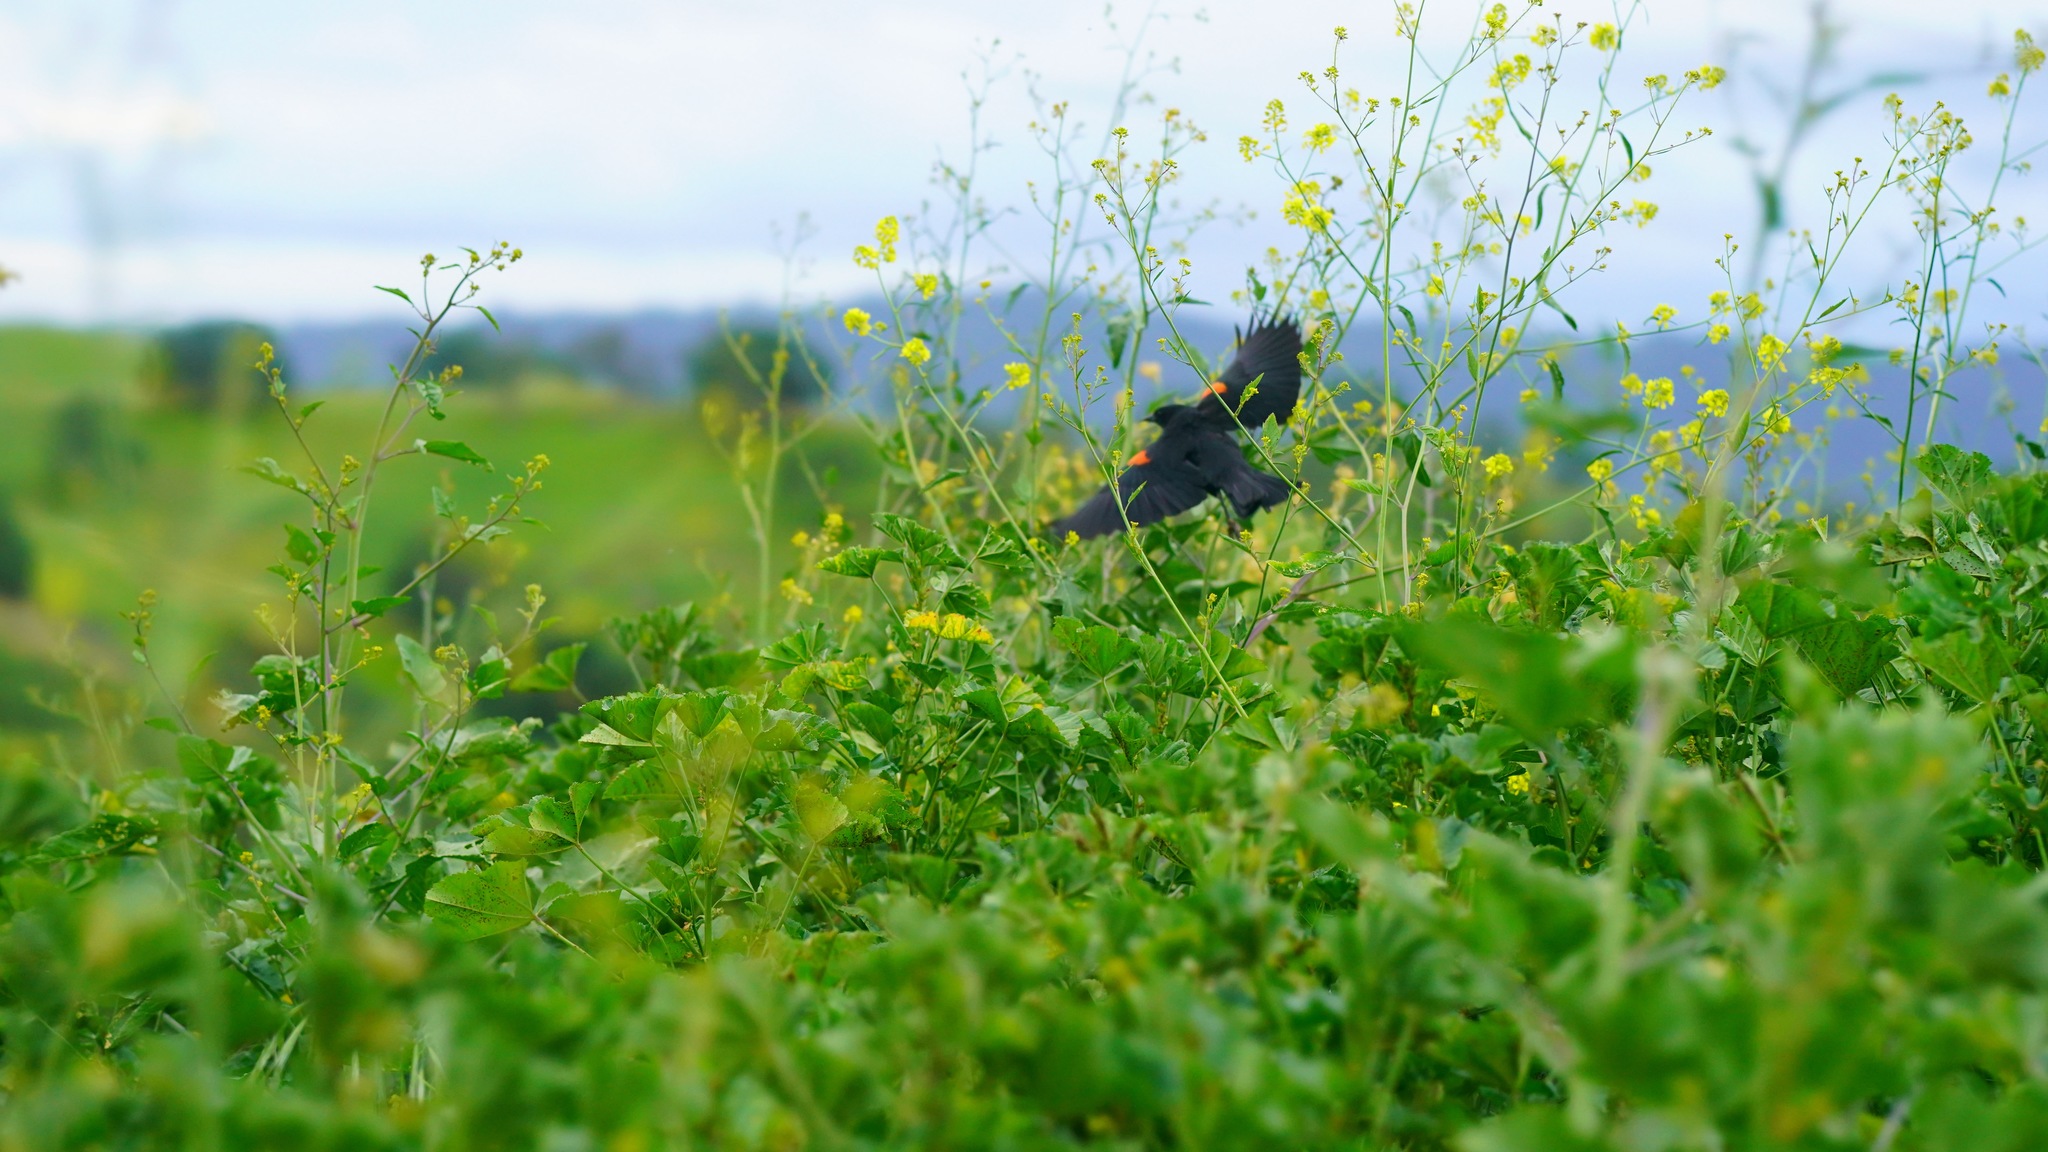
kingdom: Animalia
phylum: Chordata
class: Aves
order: Passeriformes
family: Icteridae
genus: Agelaius
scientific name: Agelaius phoeniceus
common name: Red-winged blackbird
